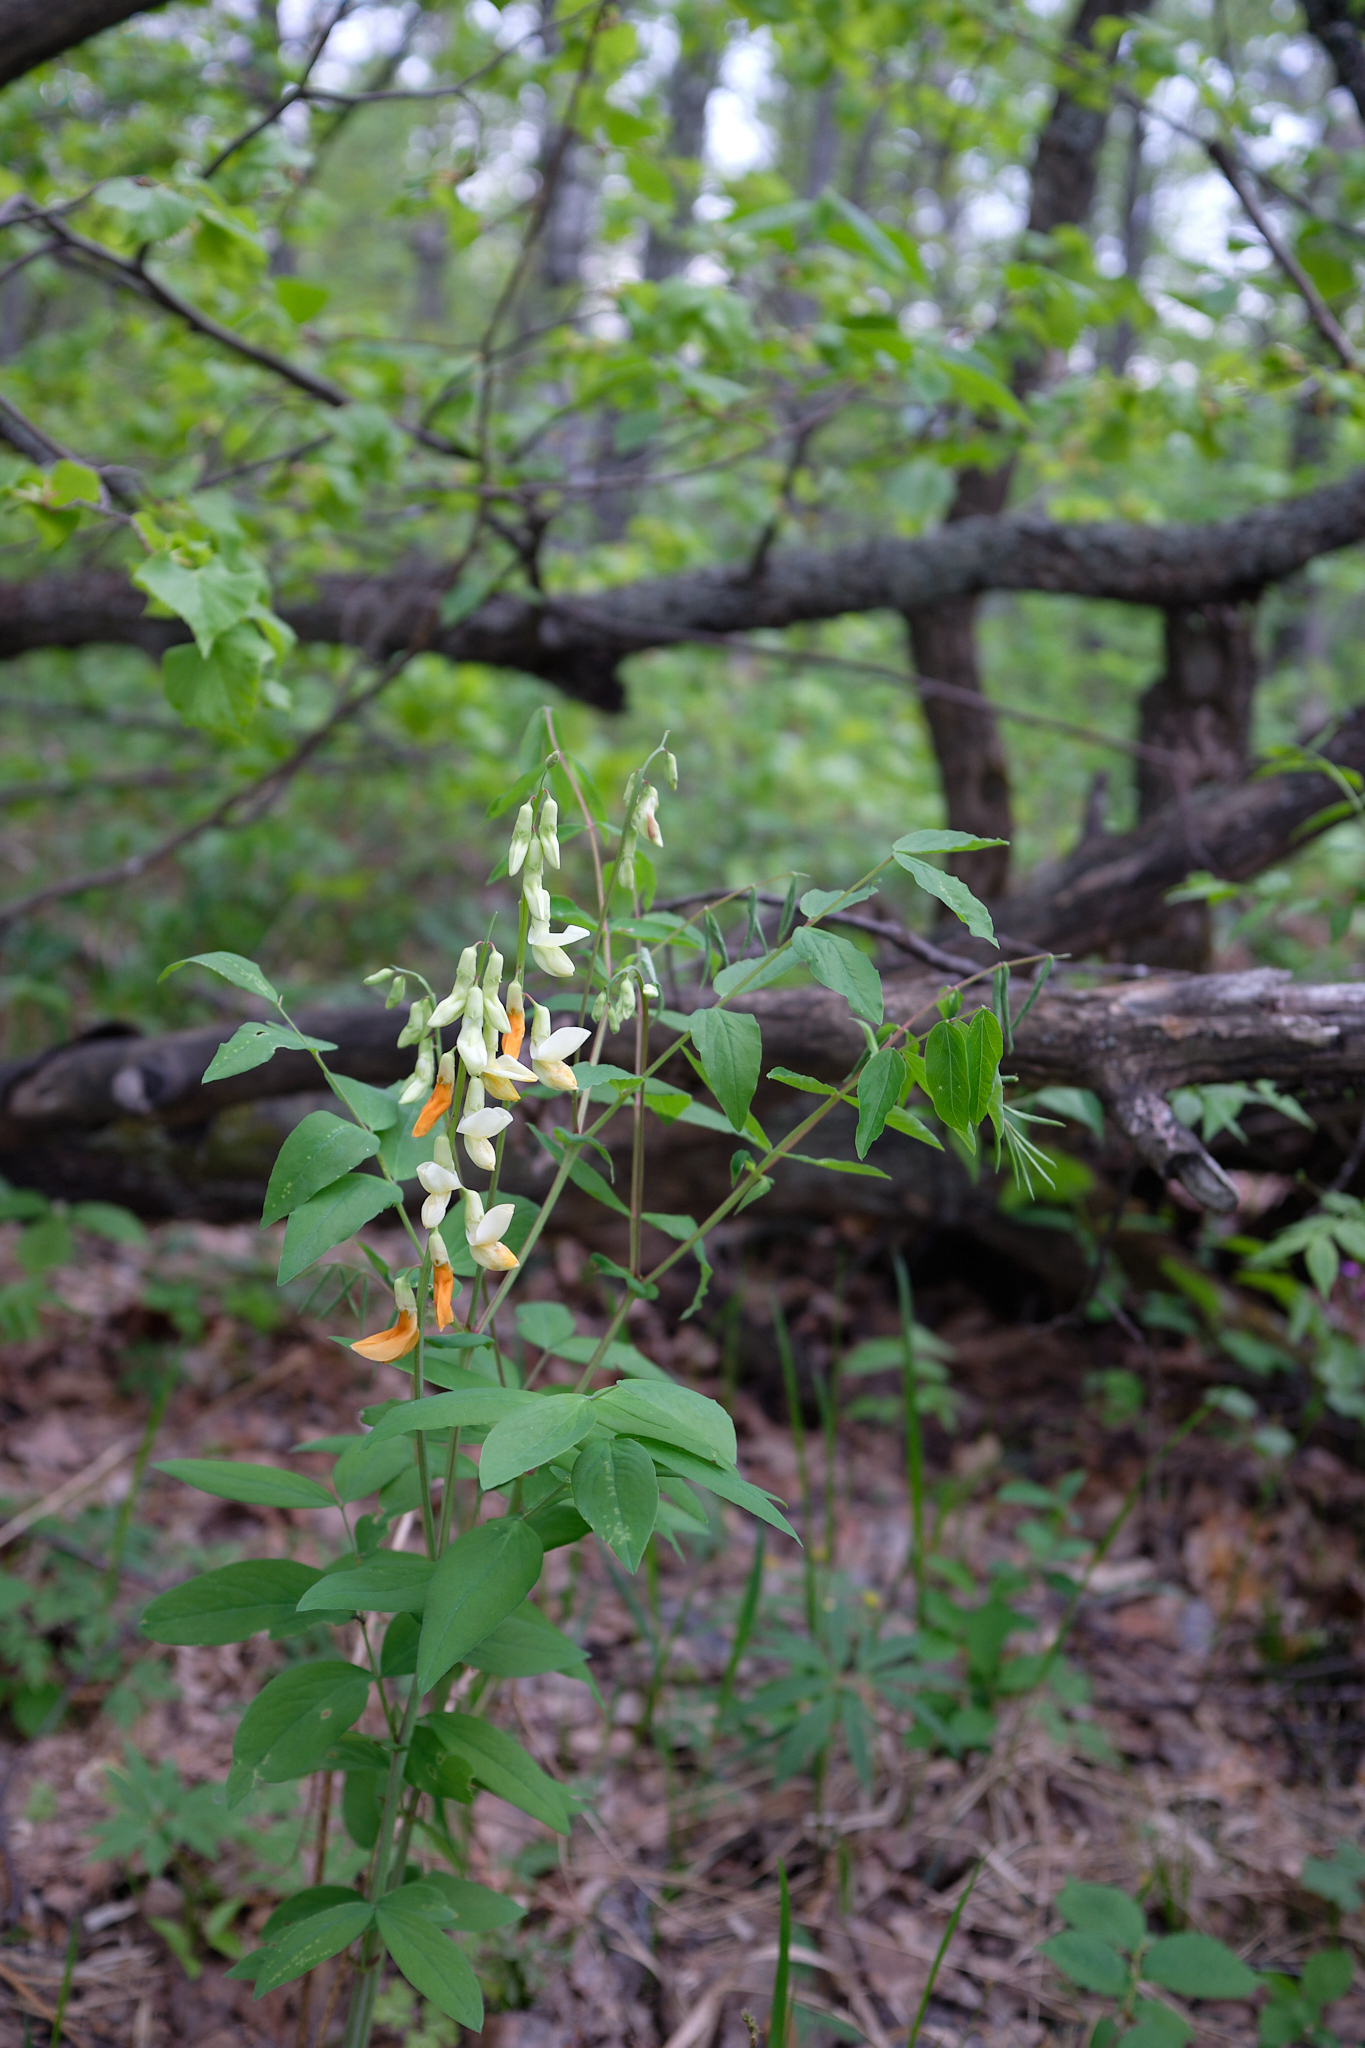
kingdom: Plantae
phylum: Tracheophyta
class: Magnoliopsida
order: Fabales
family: Fabaceae
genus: Lathyrus
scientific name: Lathyrus gmelinii
